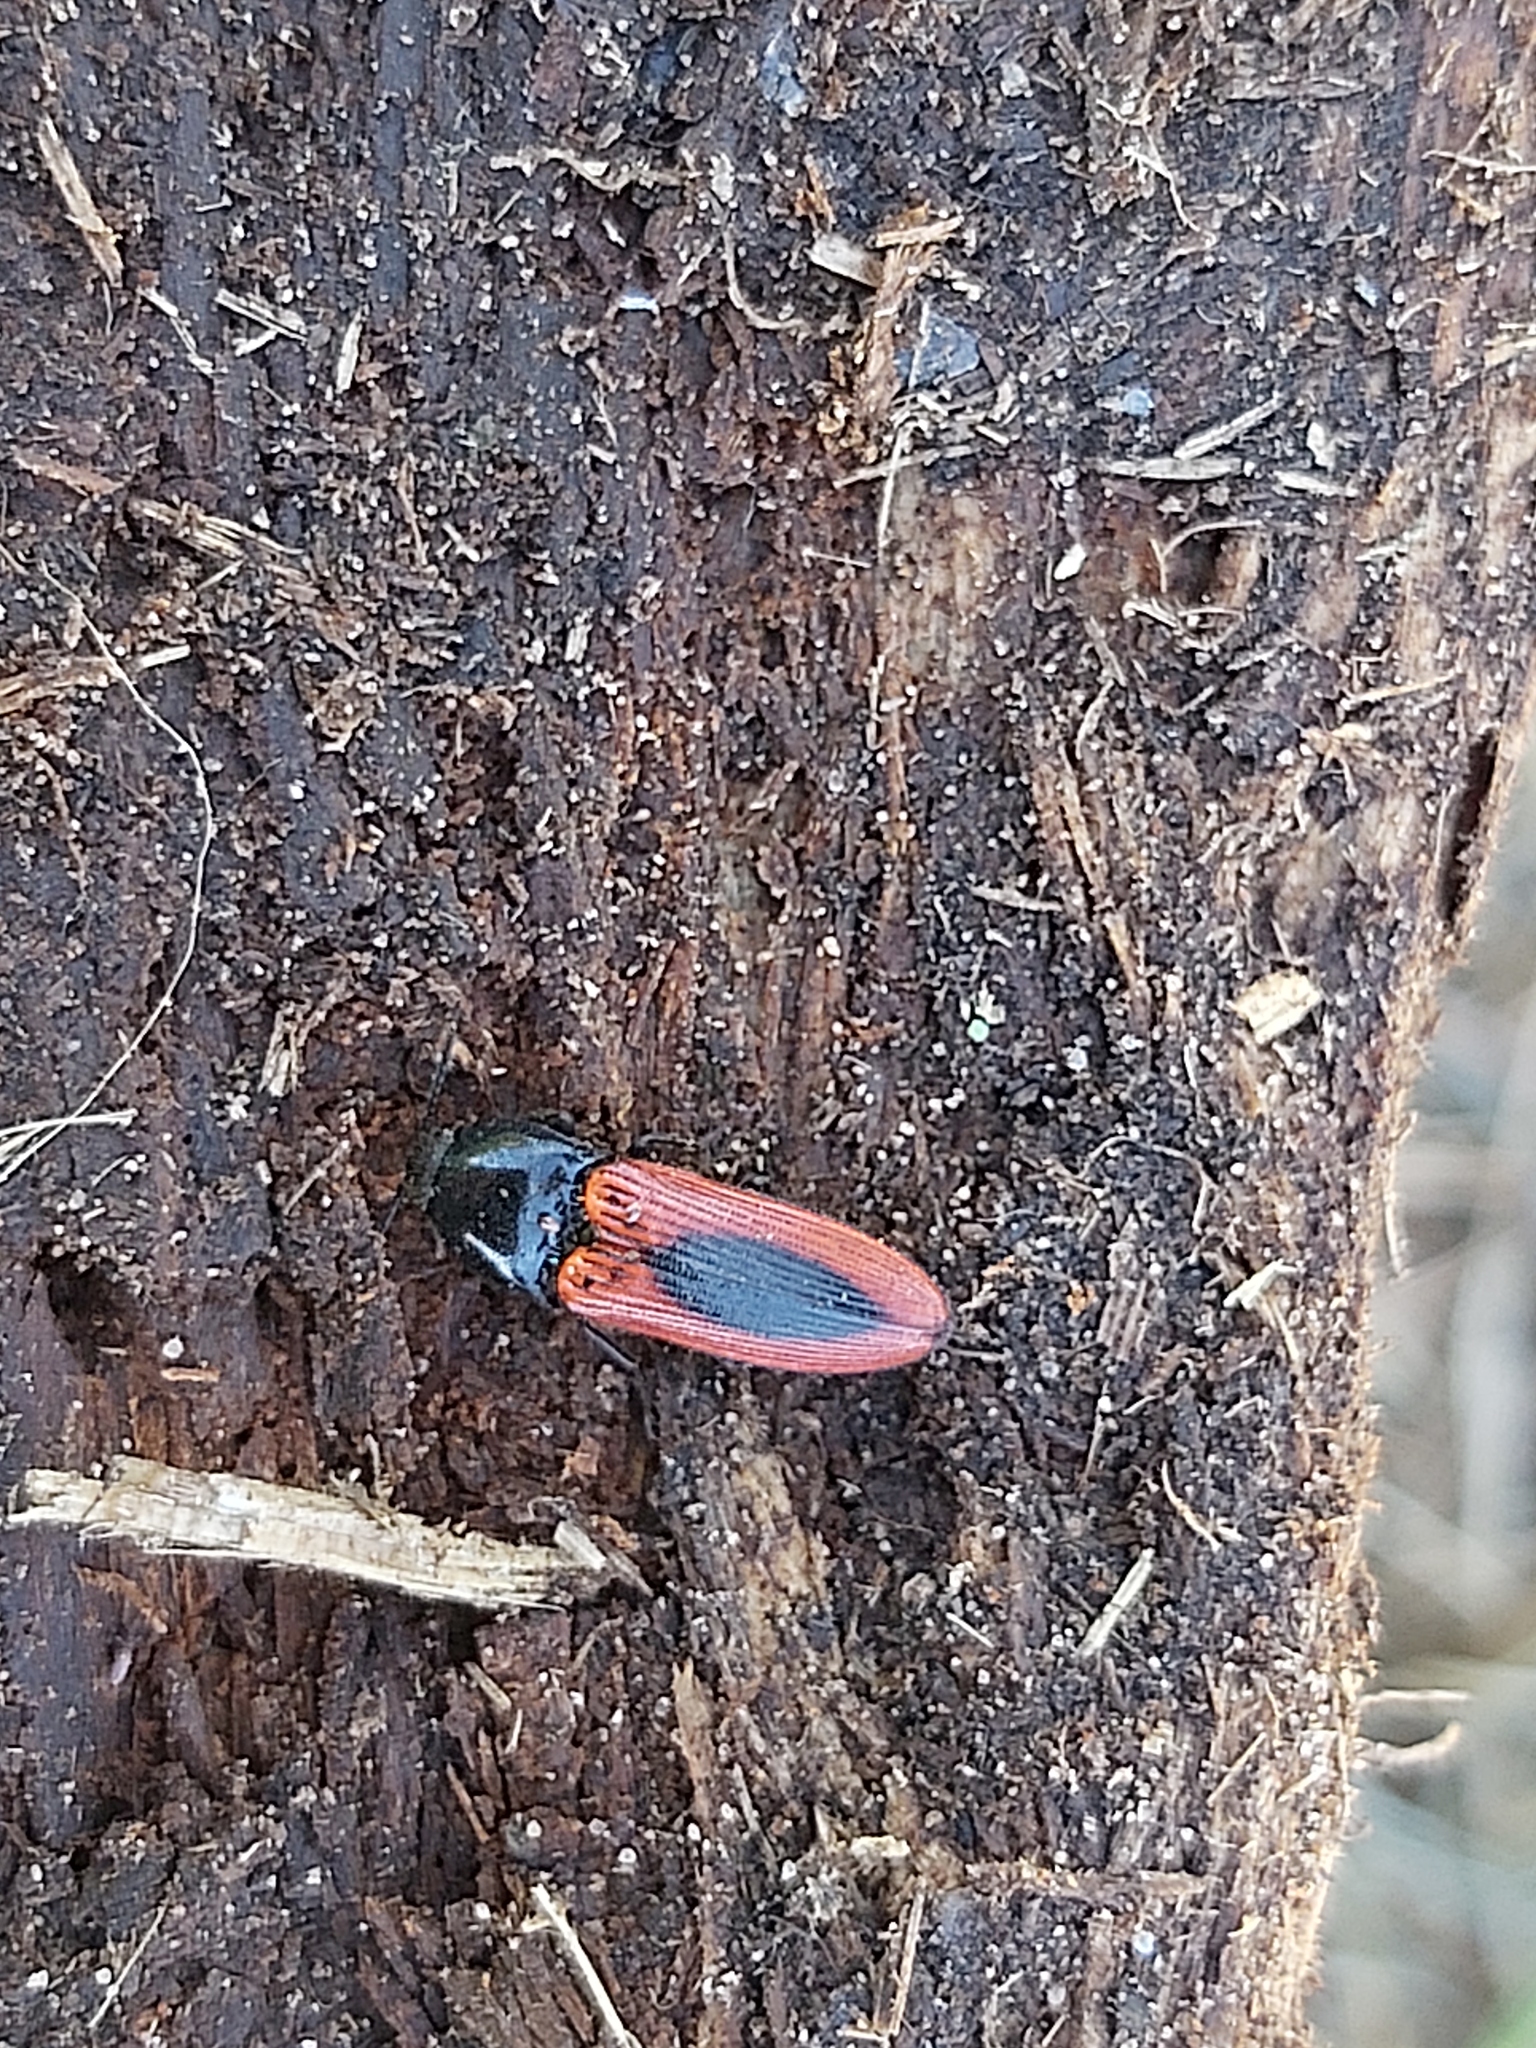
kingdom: Animalia
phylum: Arthropoda
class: Insecta
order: Coleoptera
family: Elateridae
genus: Ampedus
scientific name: Ampedus sanguinolentus
